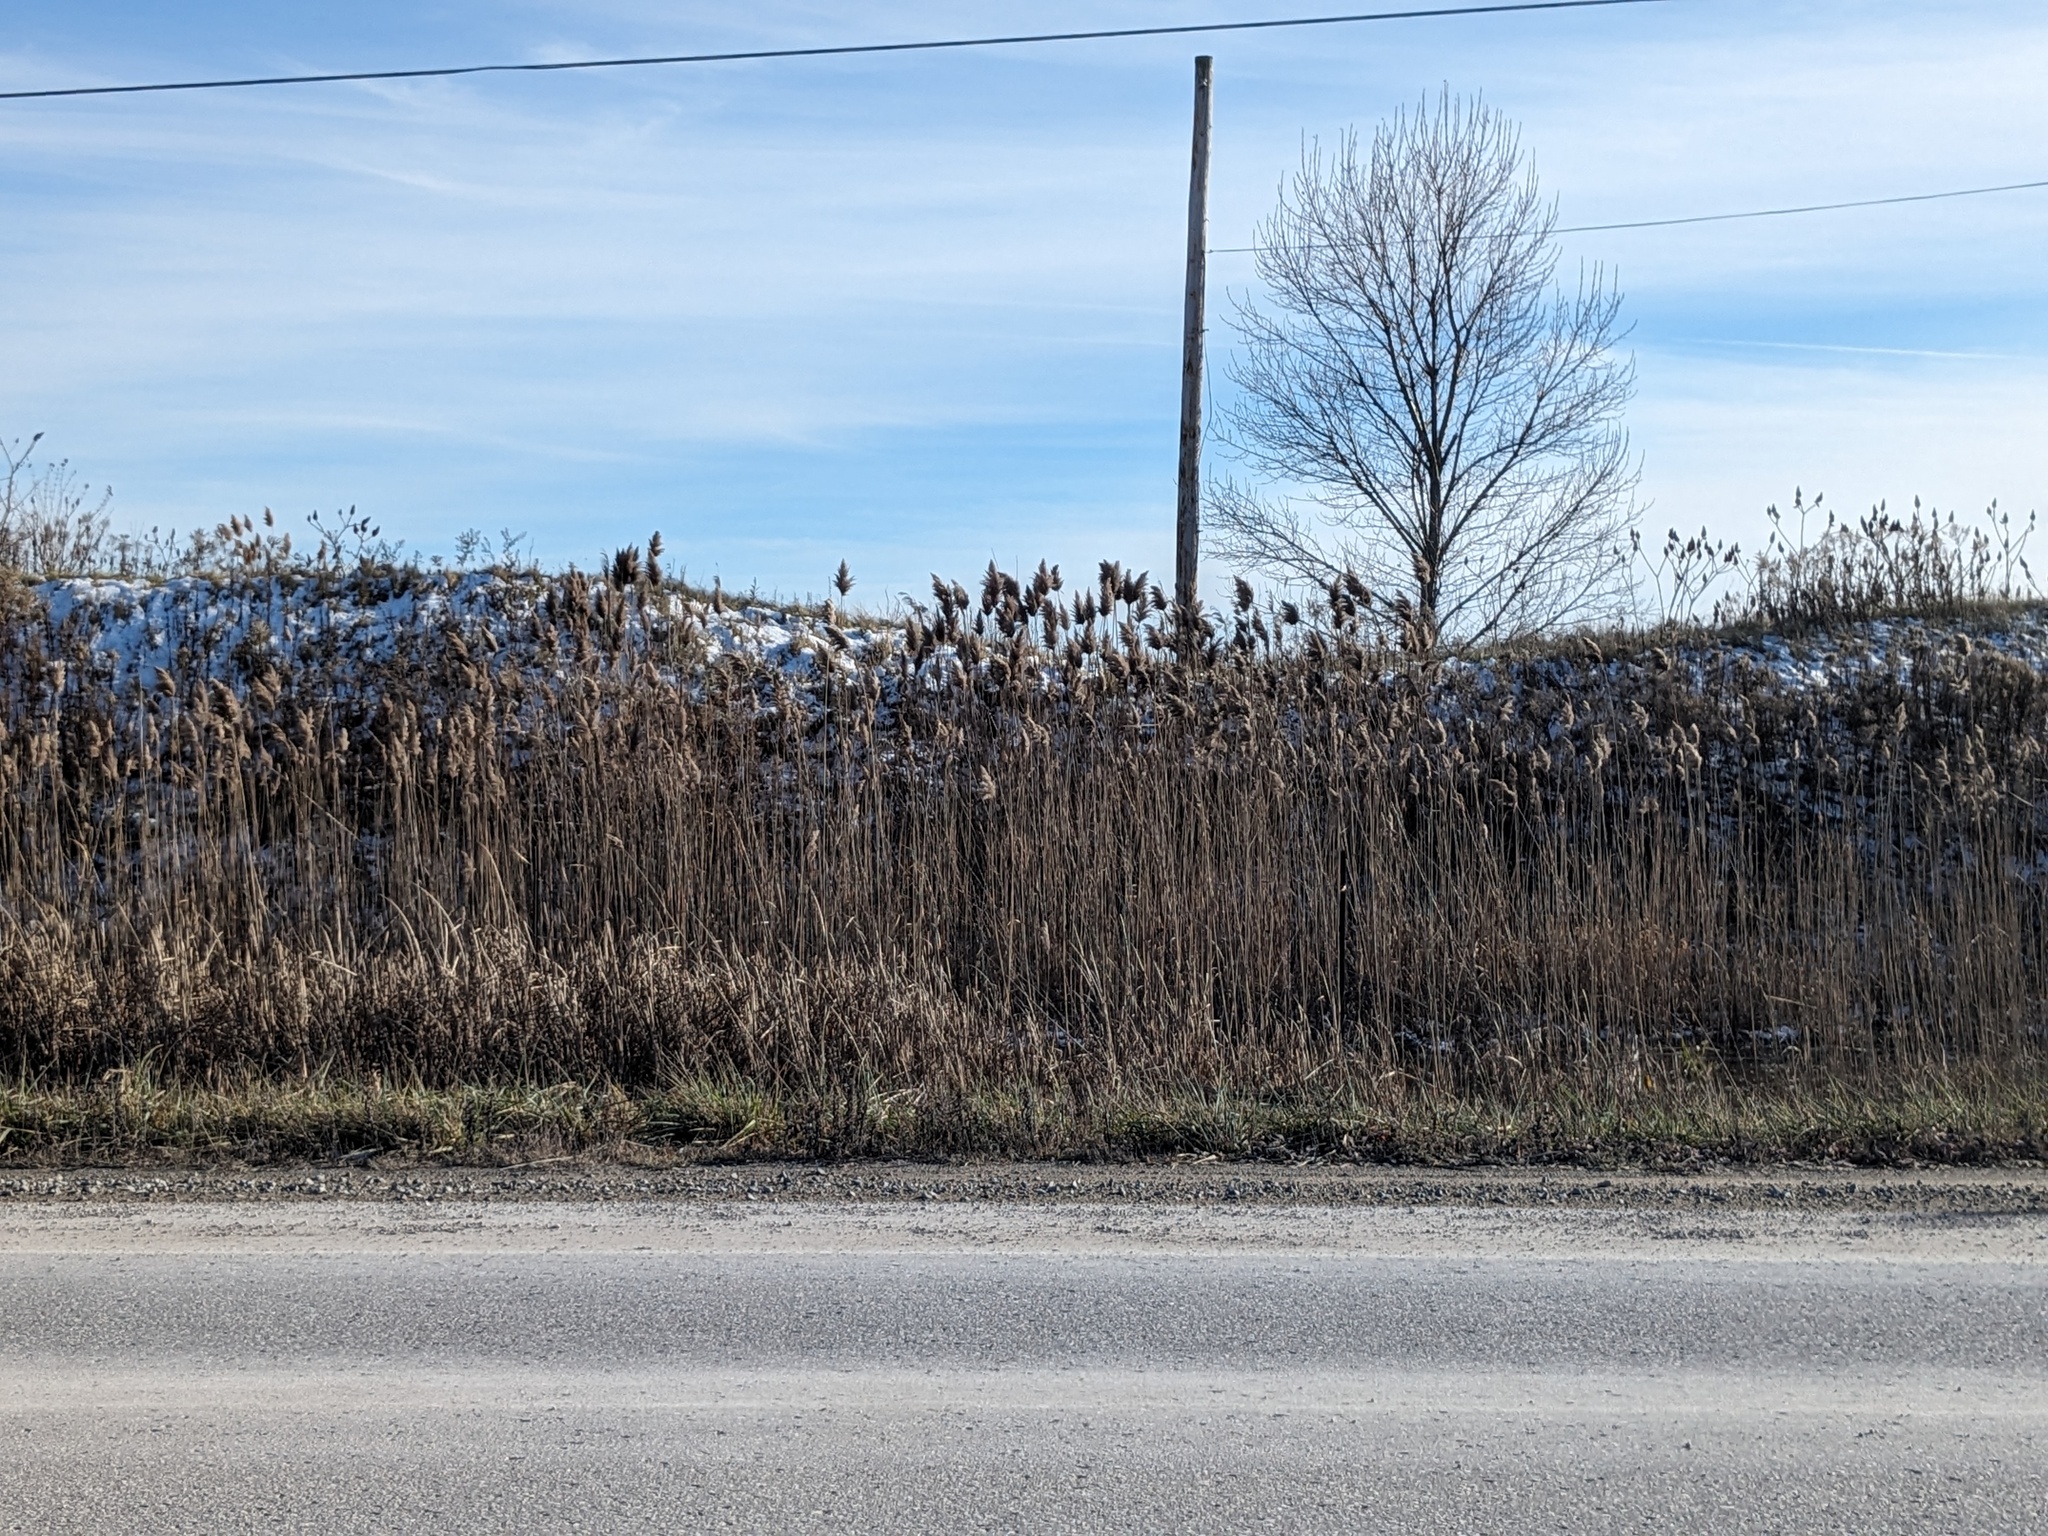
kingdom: Plantae
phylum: Tracheophyta
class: Liliopsida
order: Poales
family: Poaceae
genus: Phragmites
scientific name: Phragmites australis
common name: Common reed
